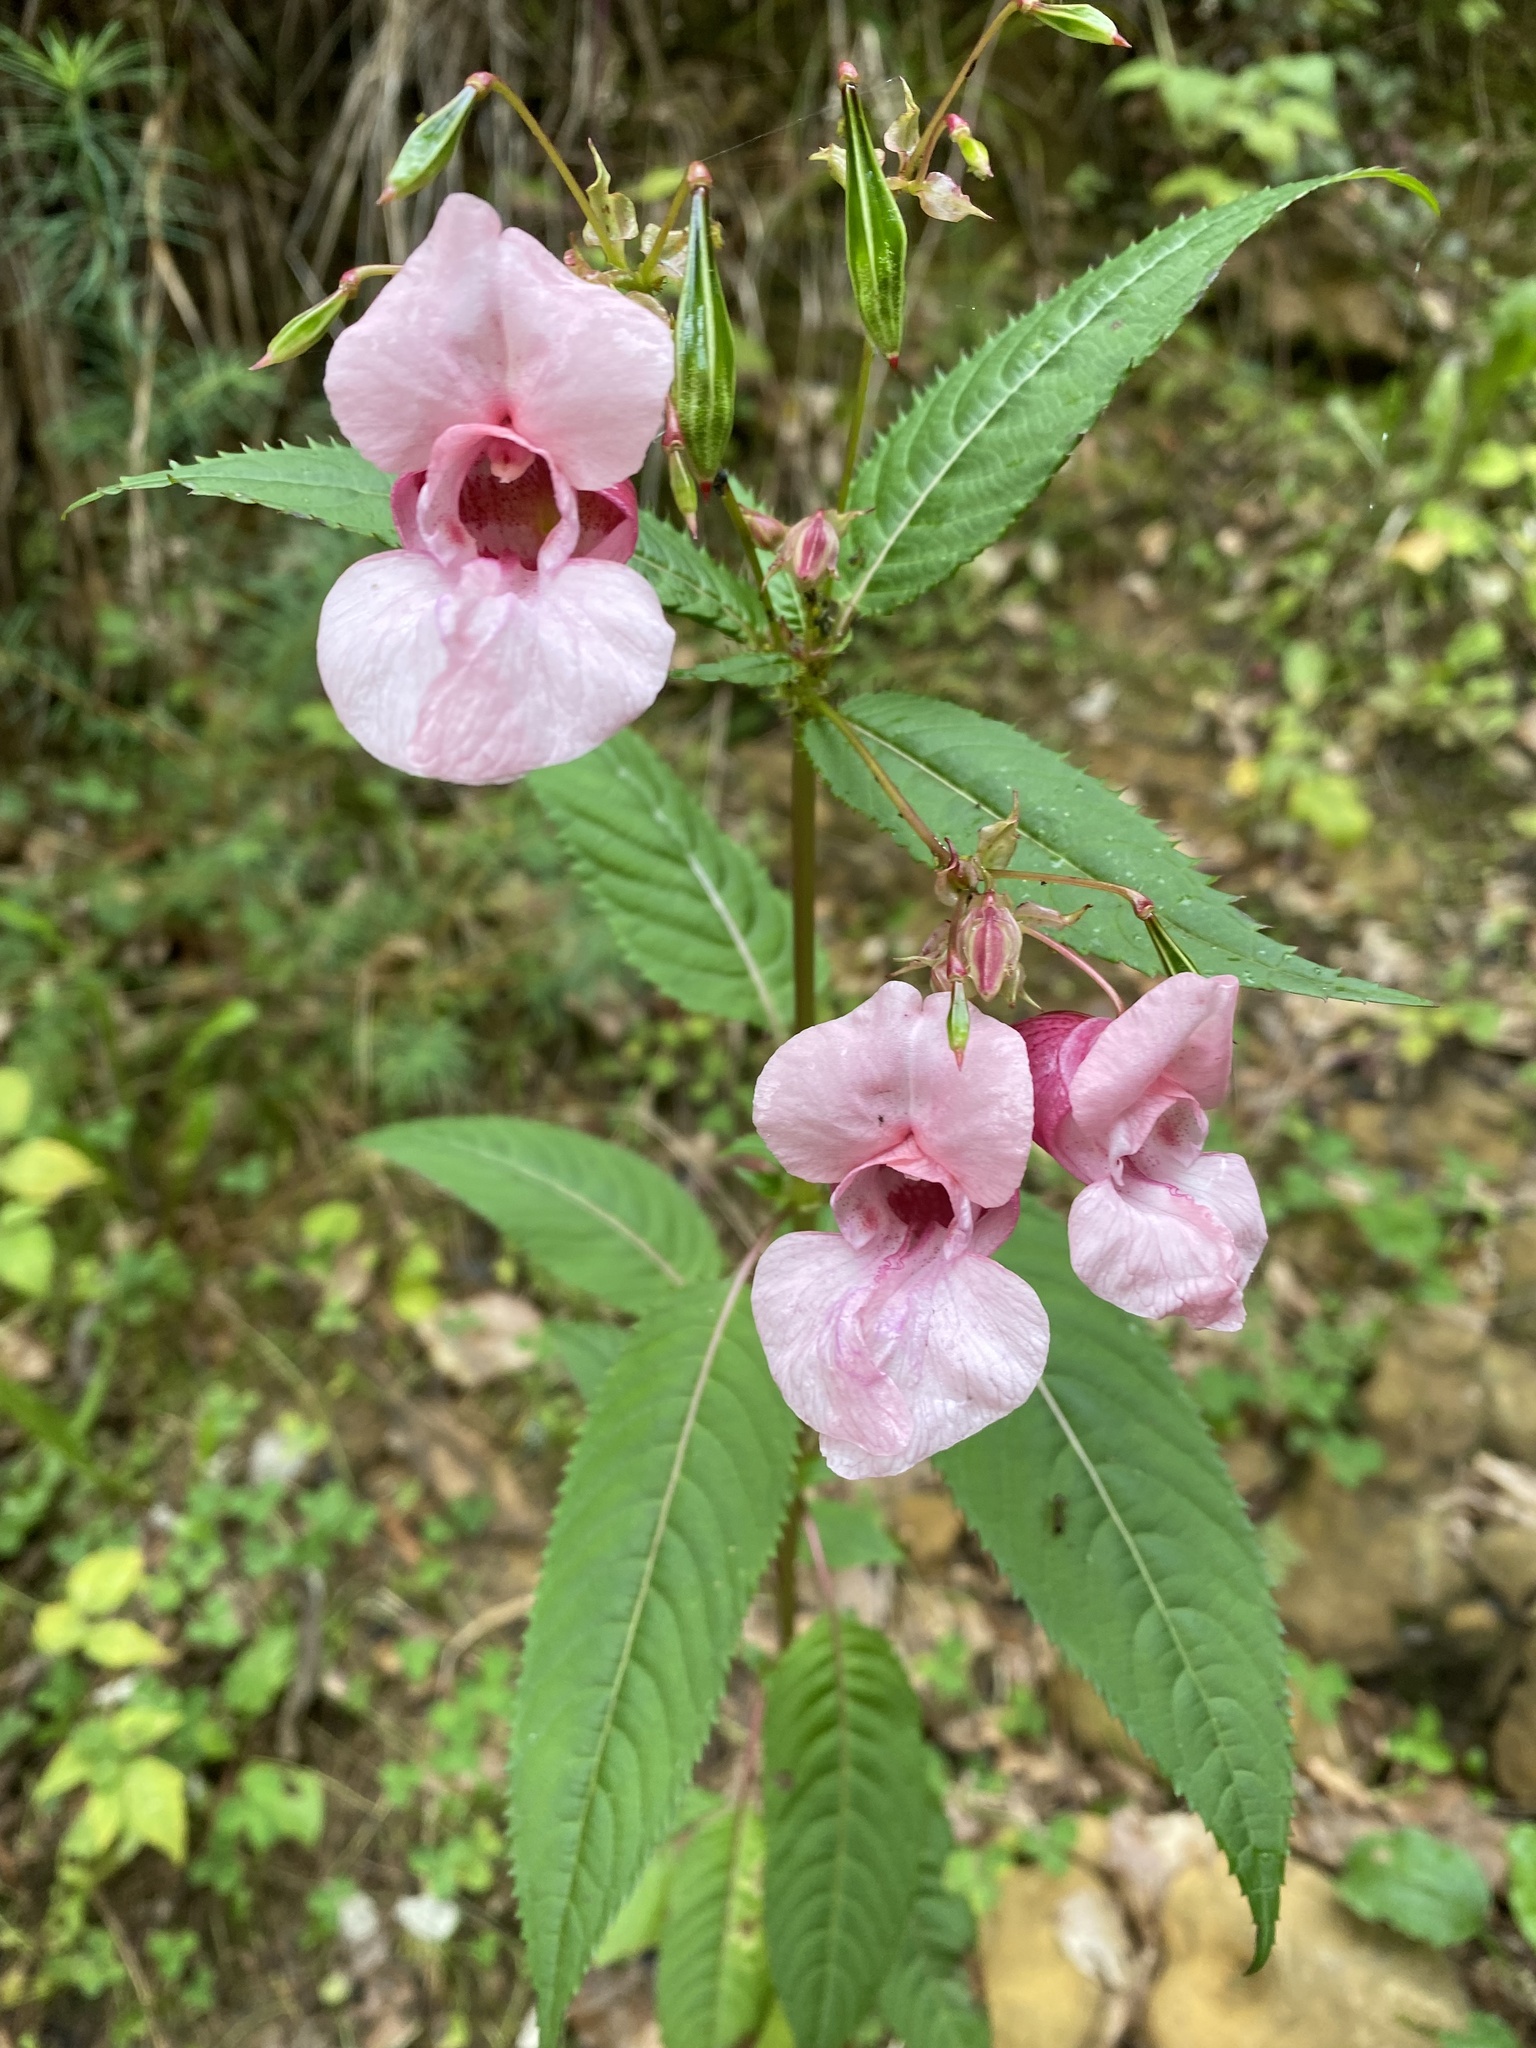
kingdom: Plantae
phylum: Tracheophyta
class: Magnoliopsida
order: Ericales
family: Balsaminaceae
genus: Impatiens
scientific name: Impatiens glandulifera
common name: Himalayan balsam
